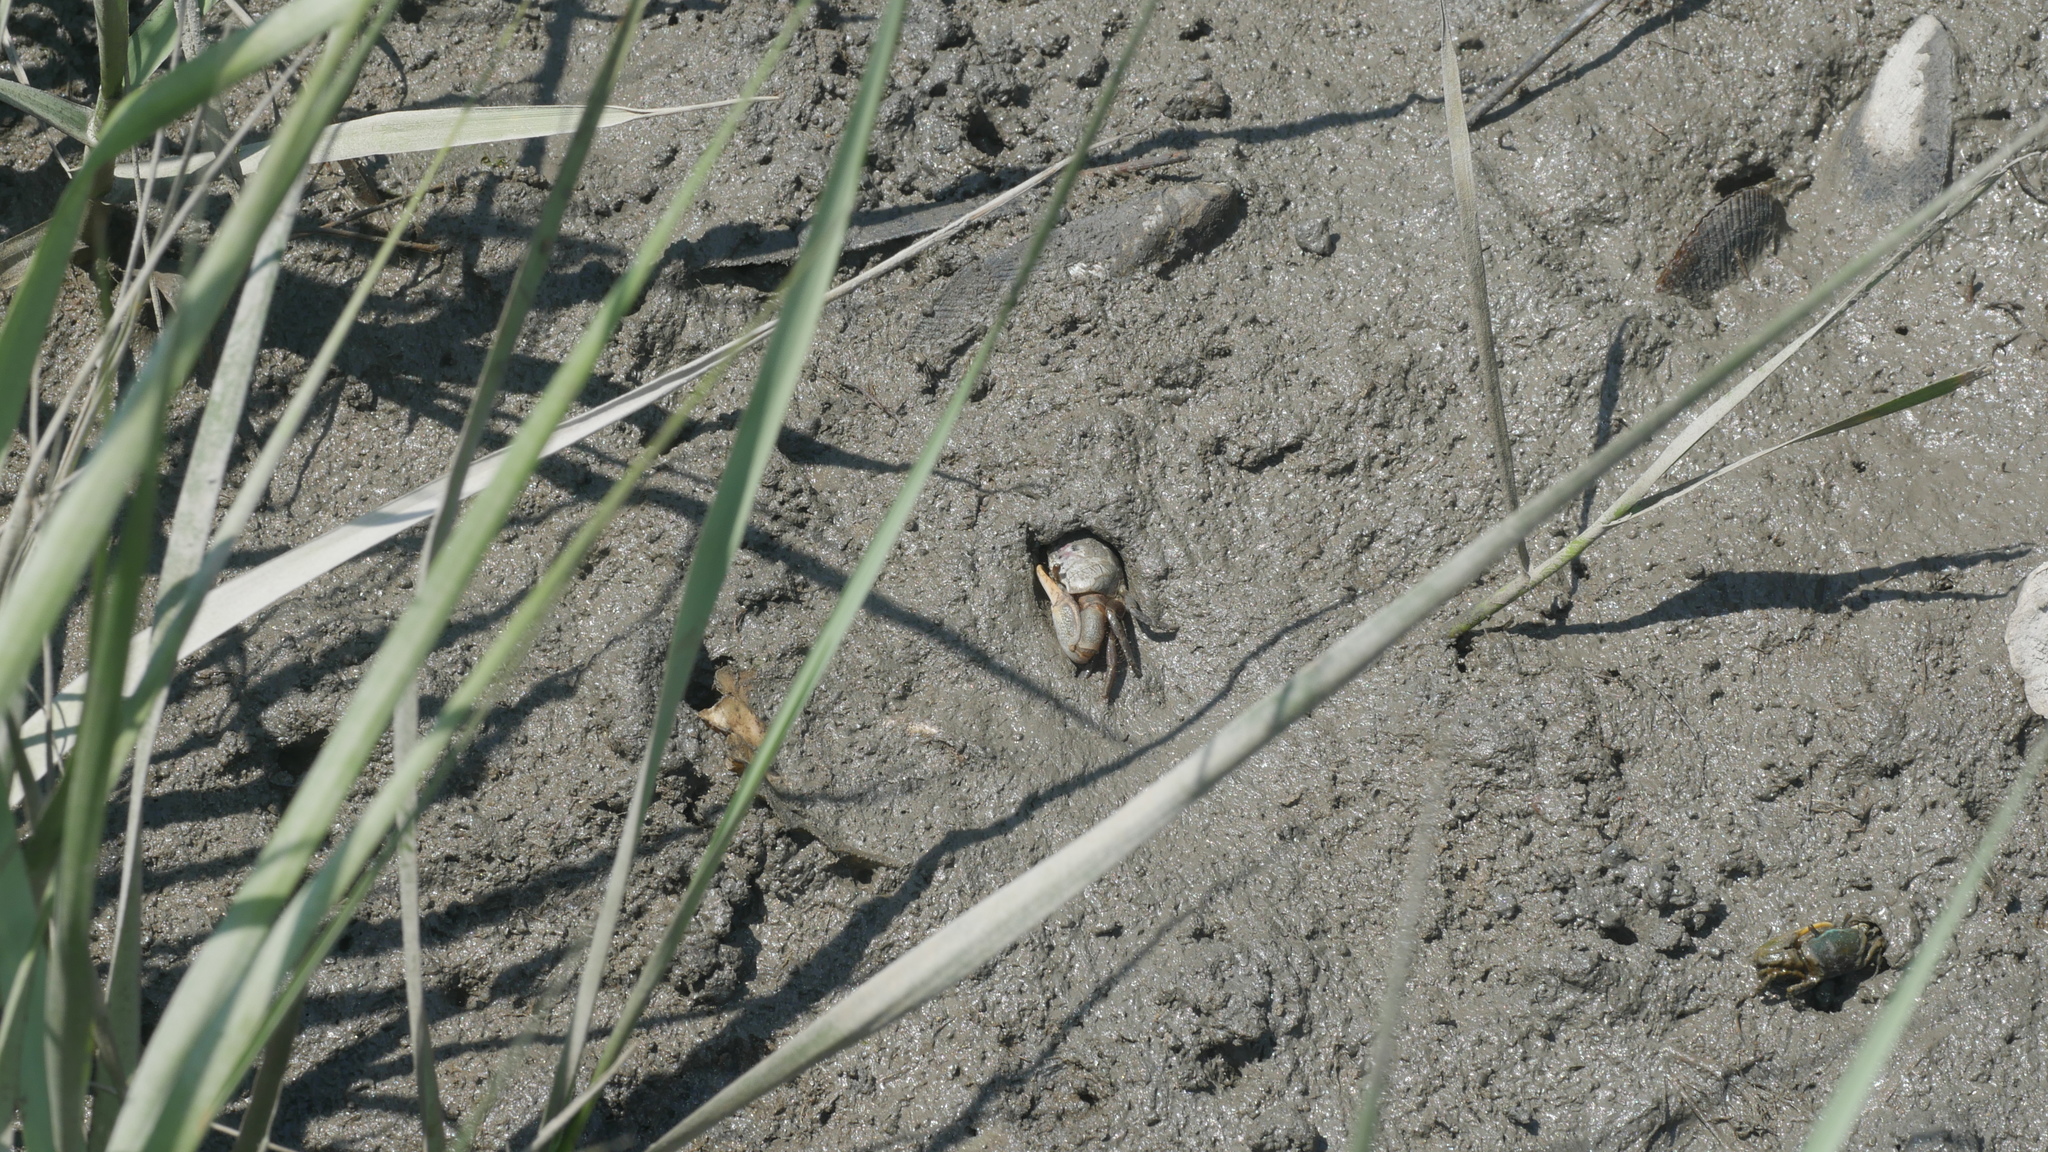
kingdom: Animalia
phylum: Arthropoda
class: Malacostraca
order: Decapoda
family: Ocypodidae
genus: Leptuca
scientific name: Leptuca pugilator
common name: Atlantic sand fiddler crab
